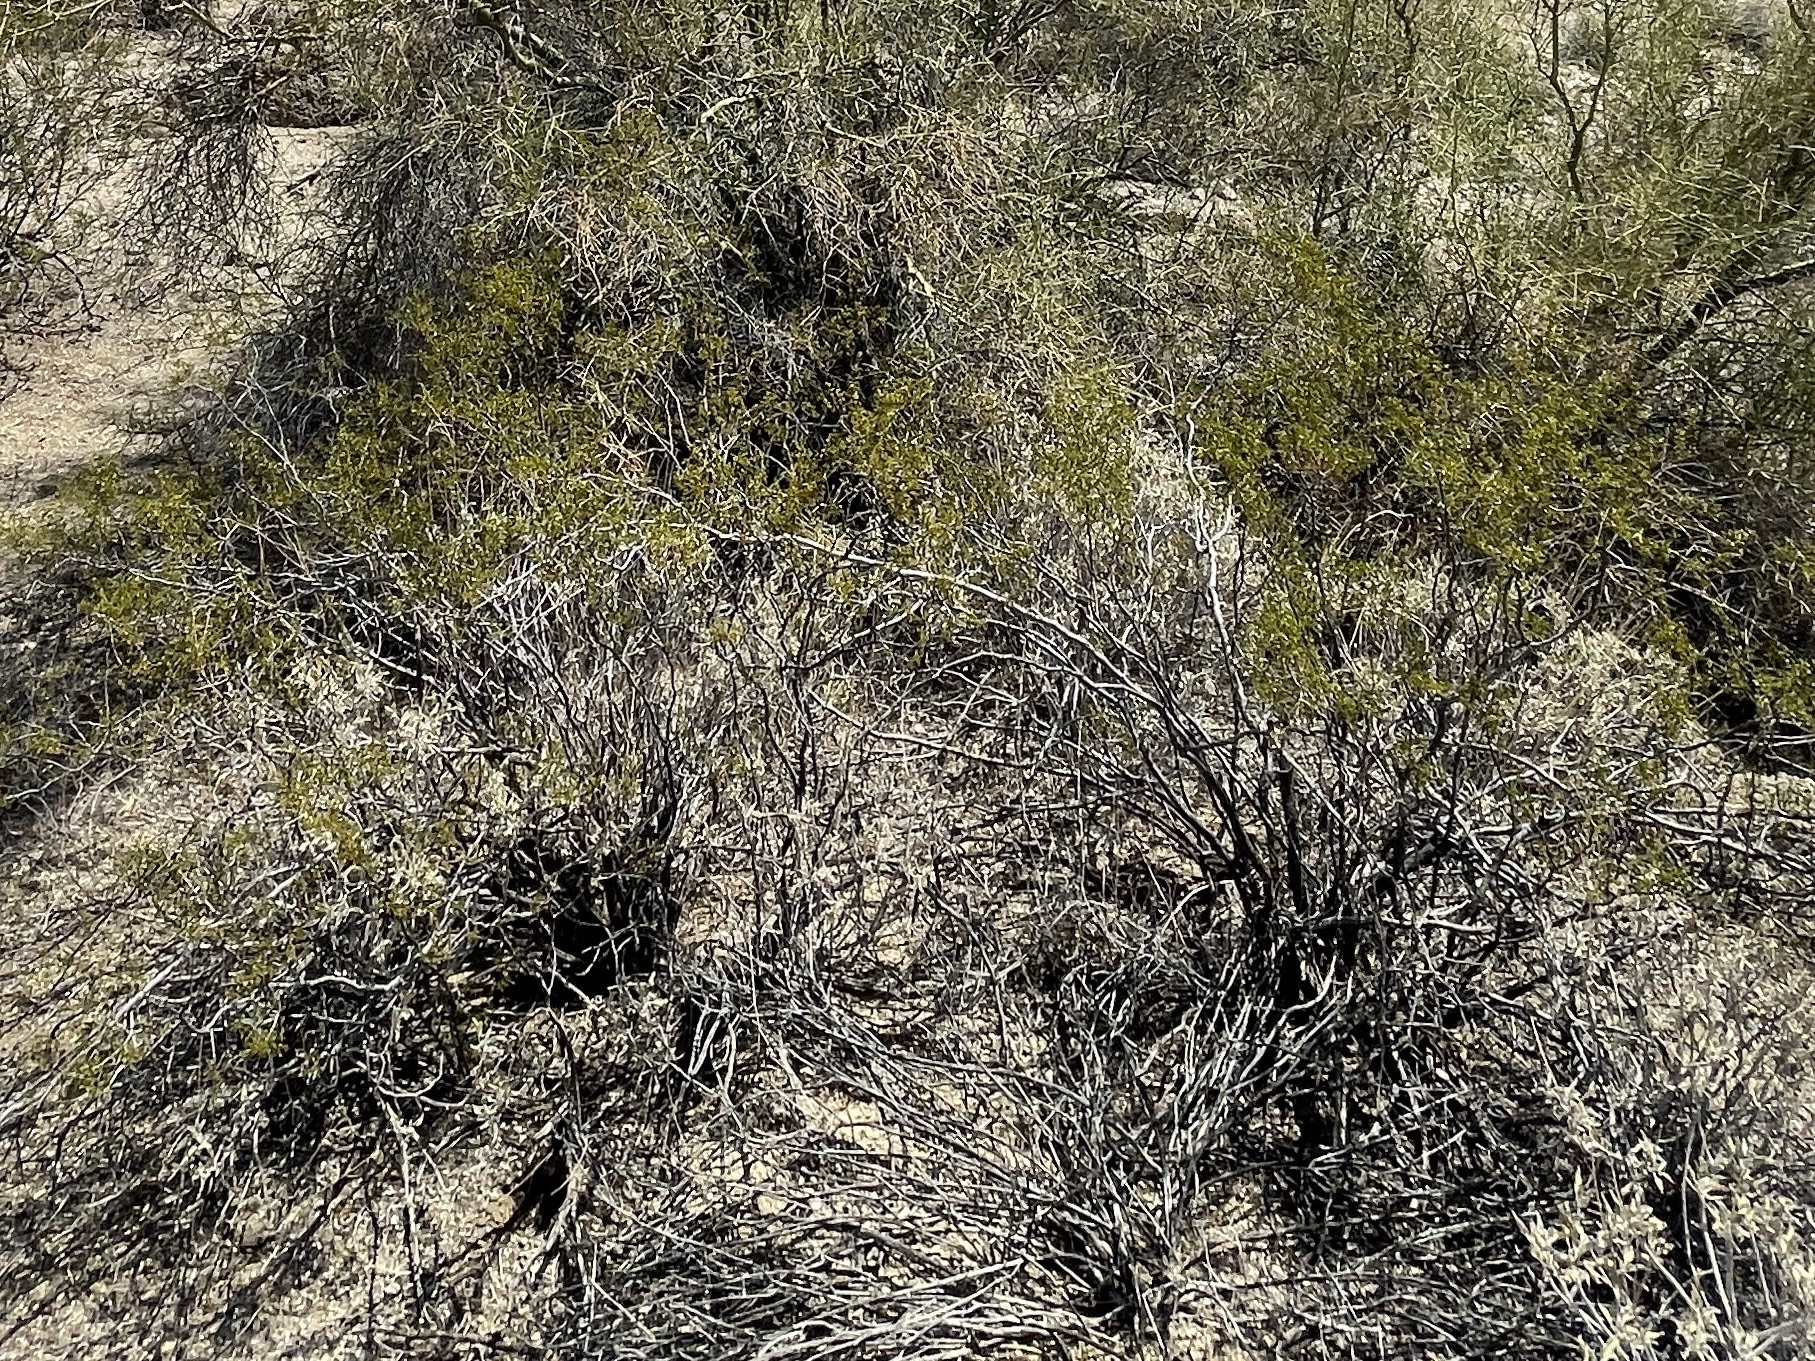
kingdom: Plantae
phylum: Tracheophyta
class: Magnoliopsida
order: Zygophyllales
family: Zygophyllaceae
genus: Larrea
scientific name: Larrea tridentata
